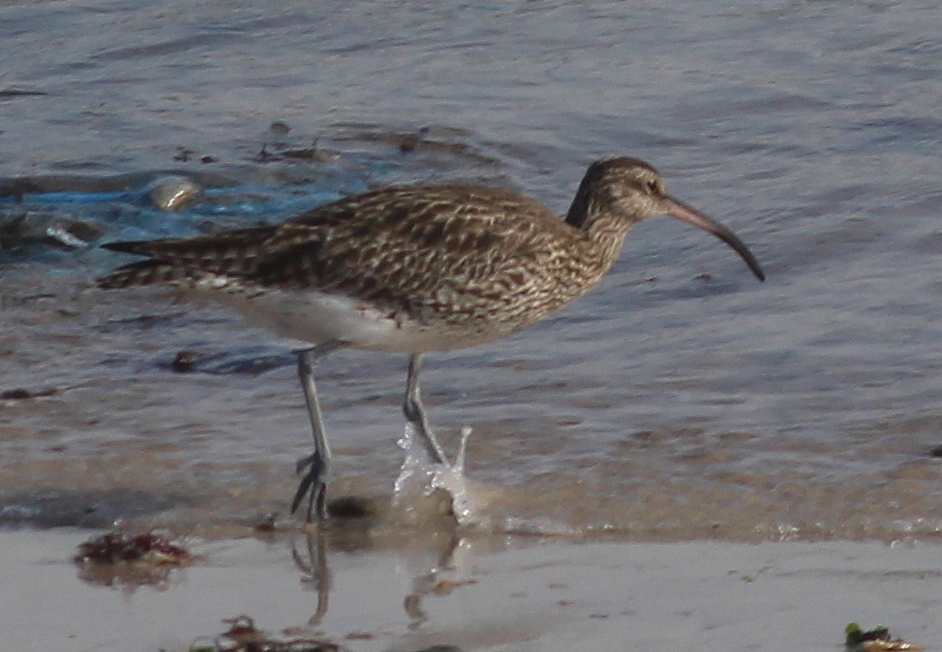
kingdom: Animalia
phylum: Chordata
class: Aves
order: Charadriiformes
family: Scolopacidae
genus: Numenius
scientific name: Numenius phaeopus
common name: Whimbrel
